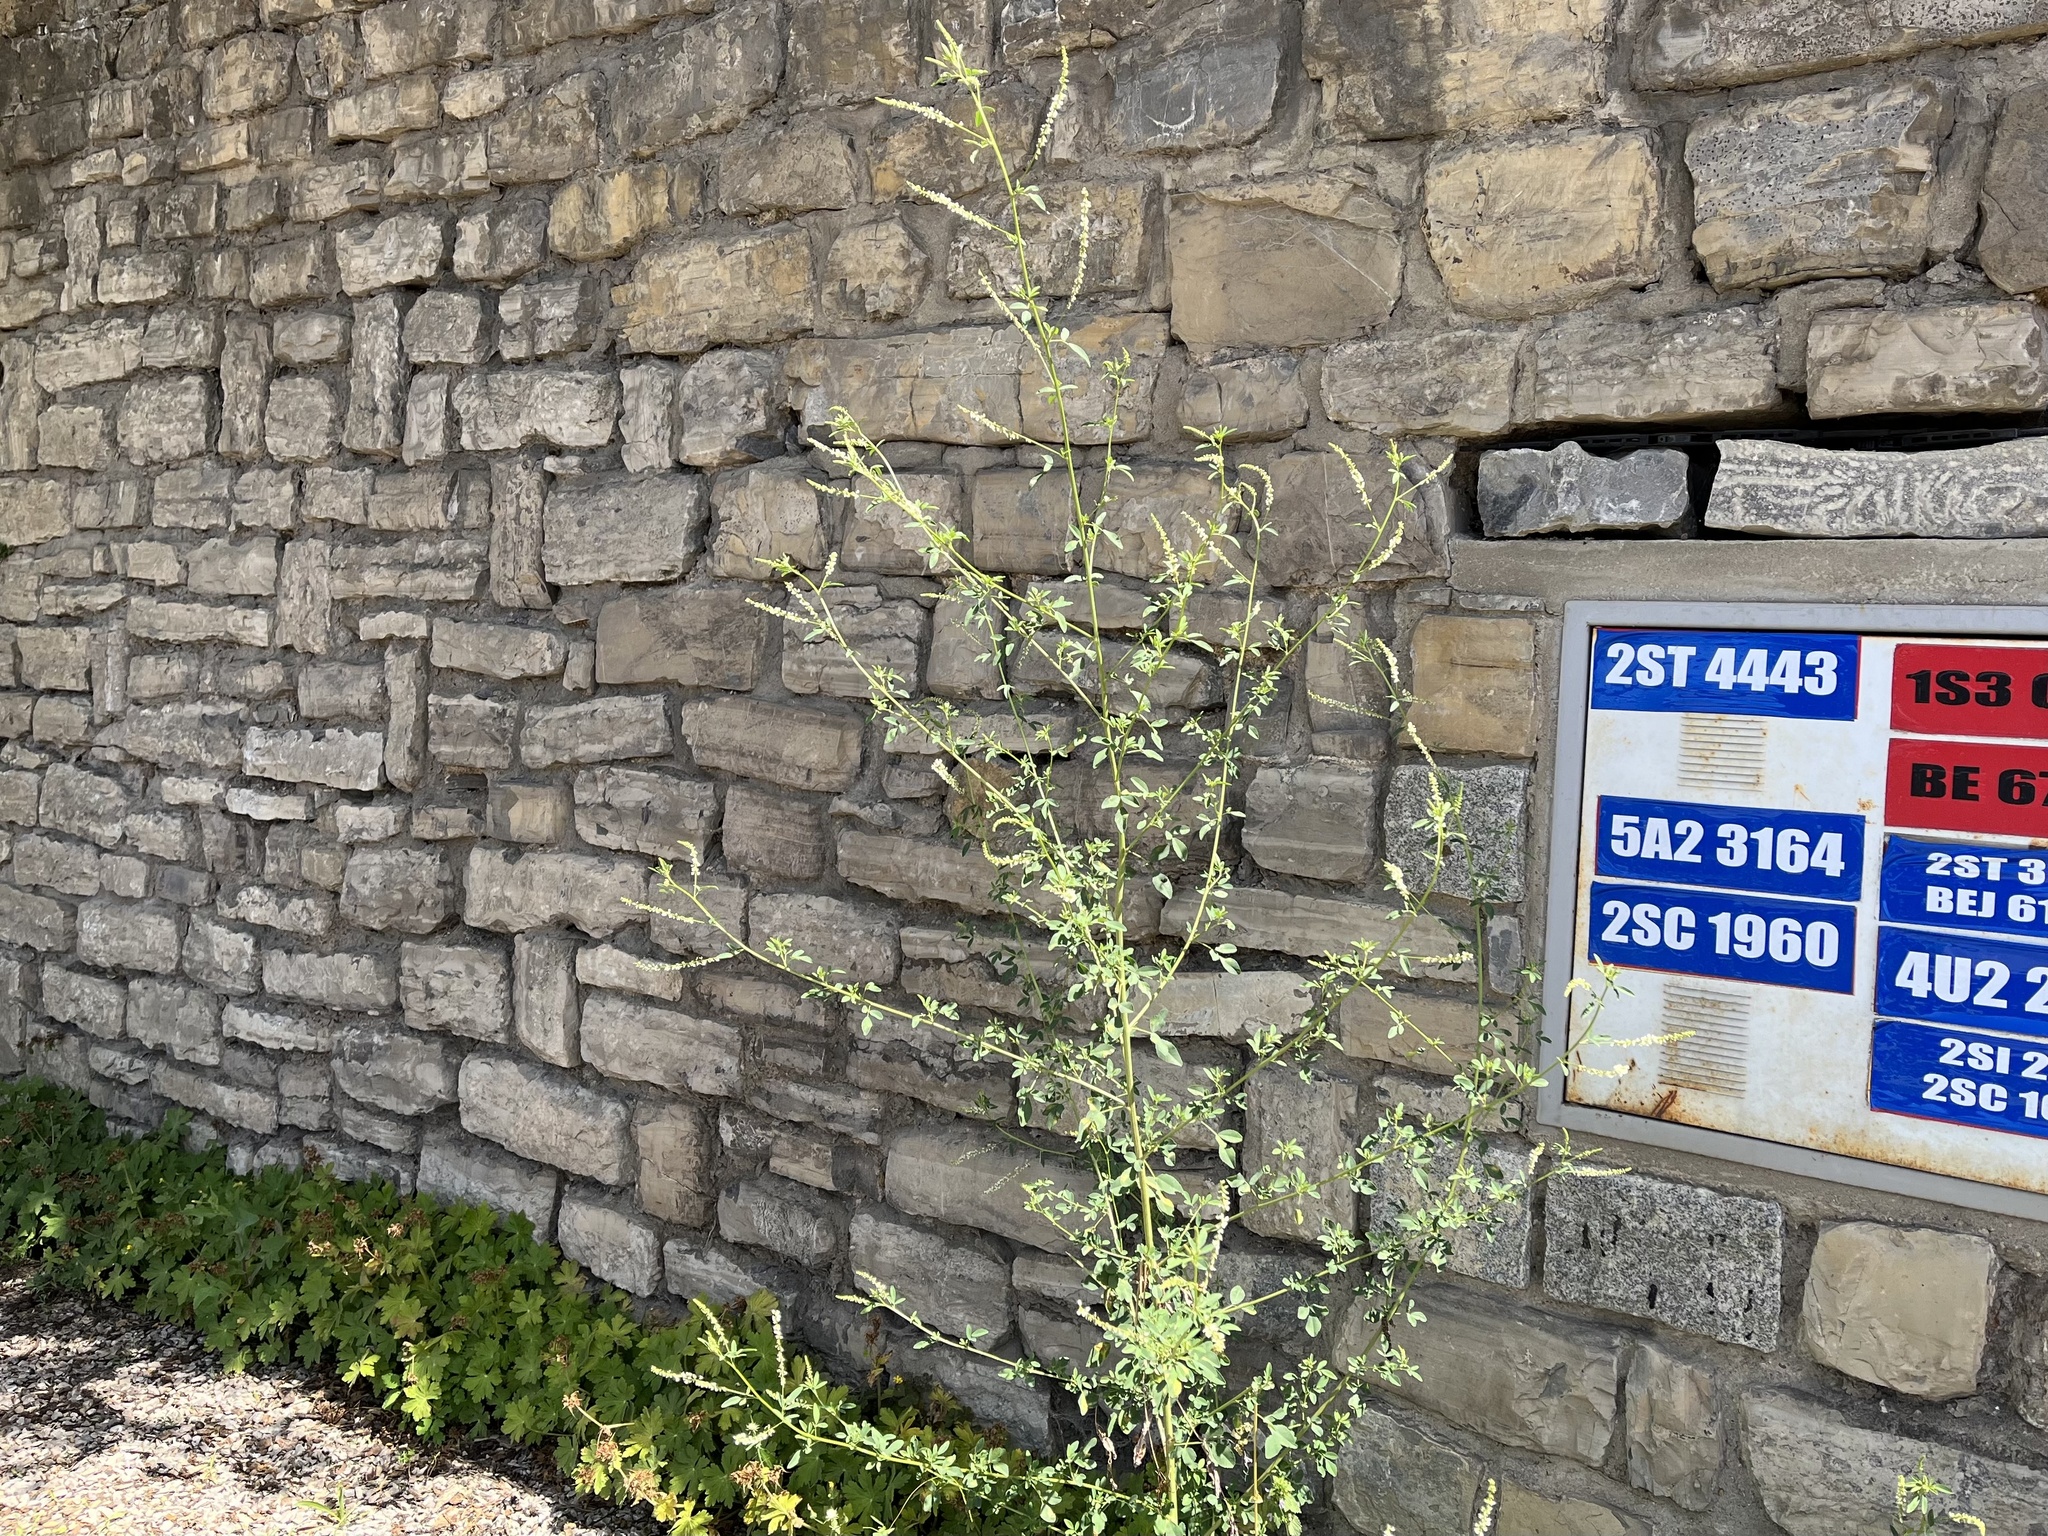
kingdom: Plantae
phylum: Tracheophyta
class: Magnoliopsida
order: Fabales
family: Fabaceae
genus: Melilotus
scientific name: Melilotus albus
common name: White melilot
